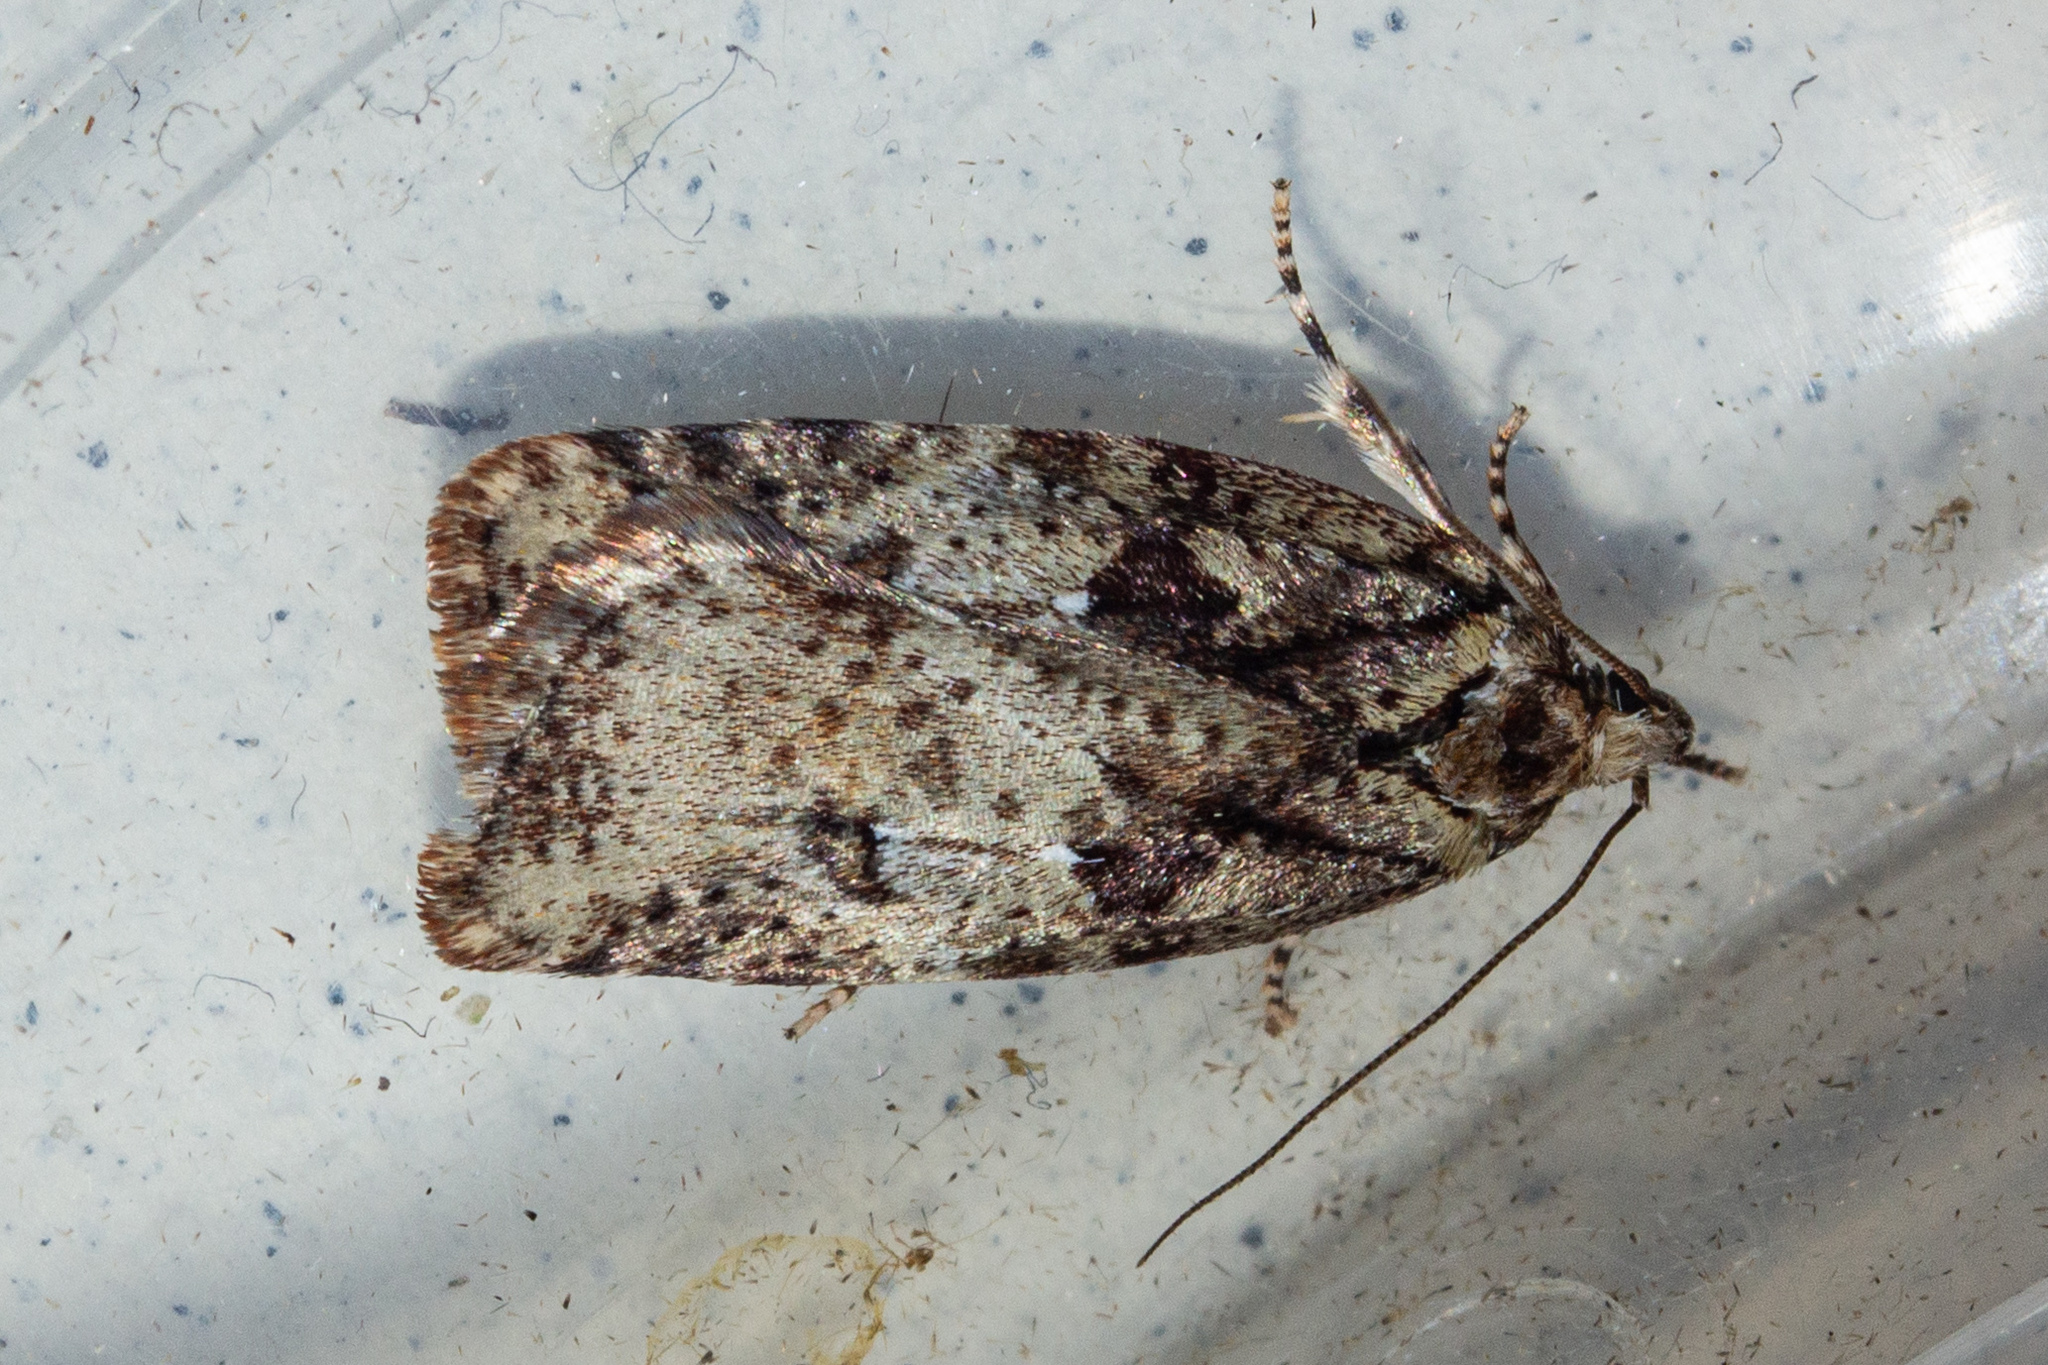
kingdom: Animalia
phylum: Arthropoda
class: Insecta
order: Lepidoptera
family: Oecophoridae
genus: Proteodes
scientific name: Proteodes profunda
